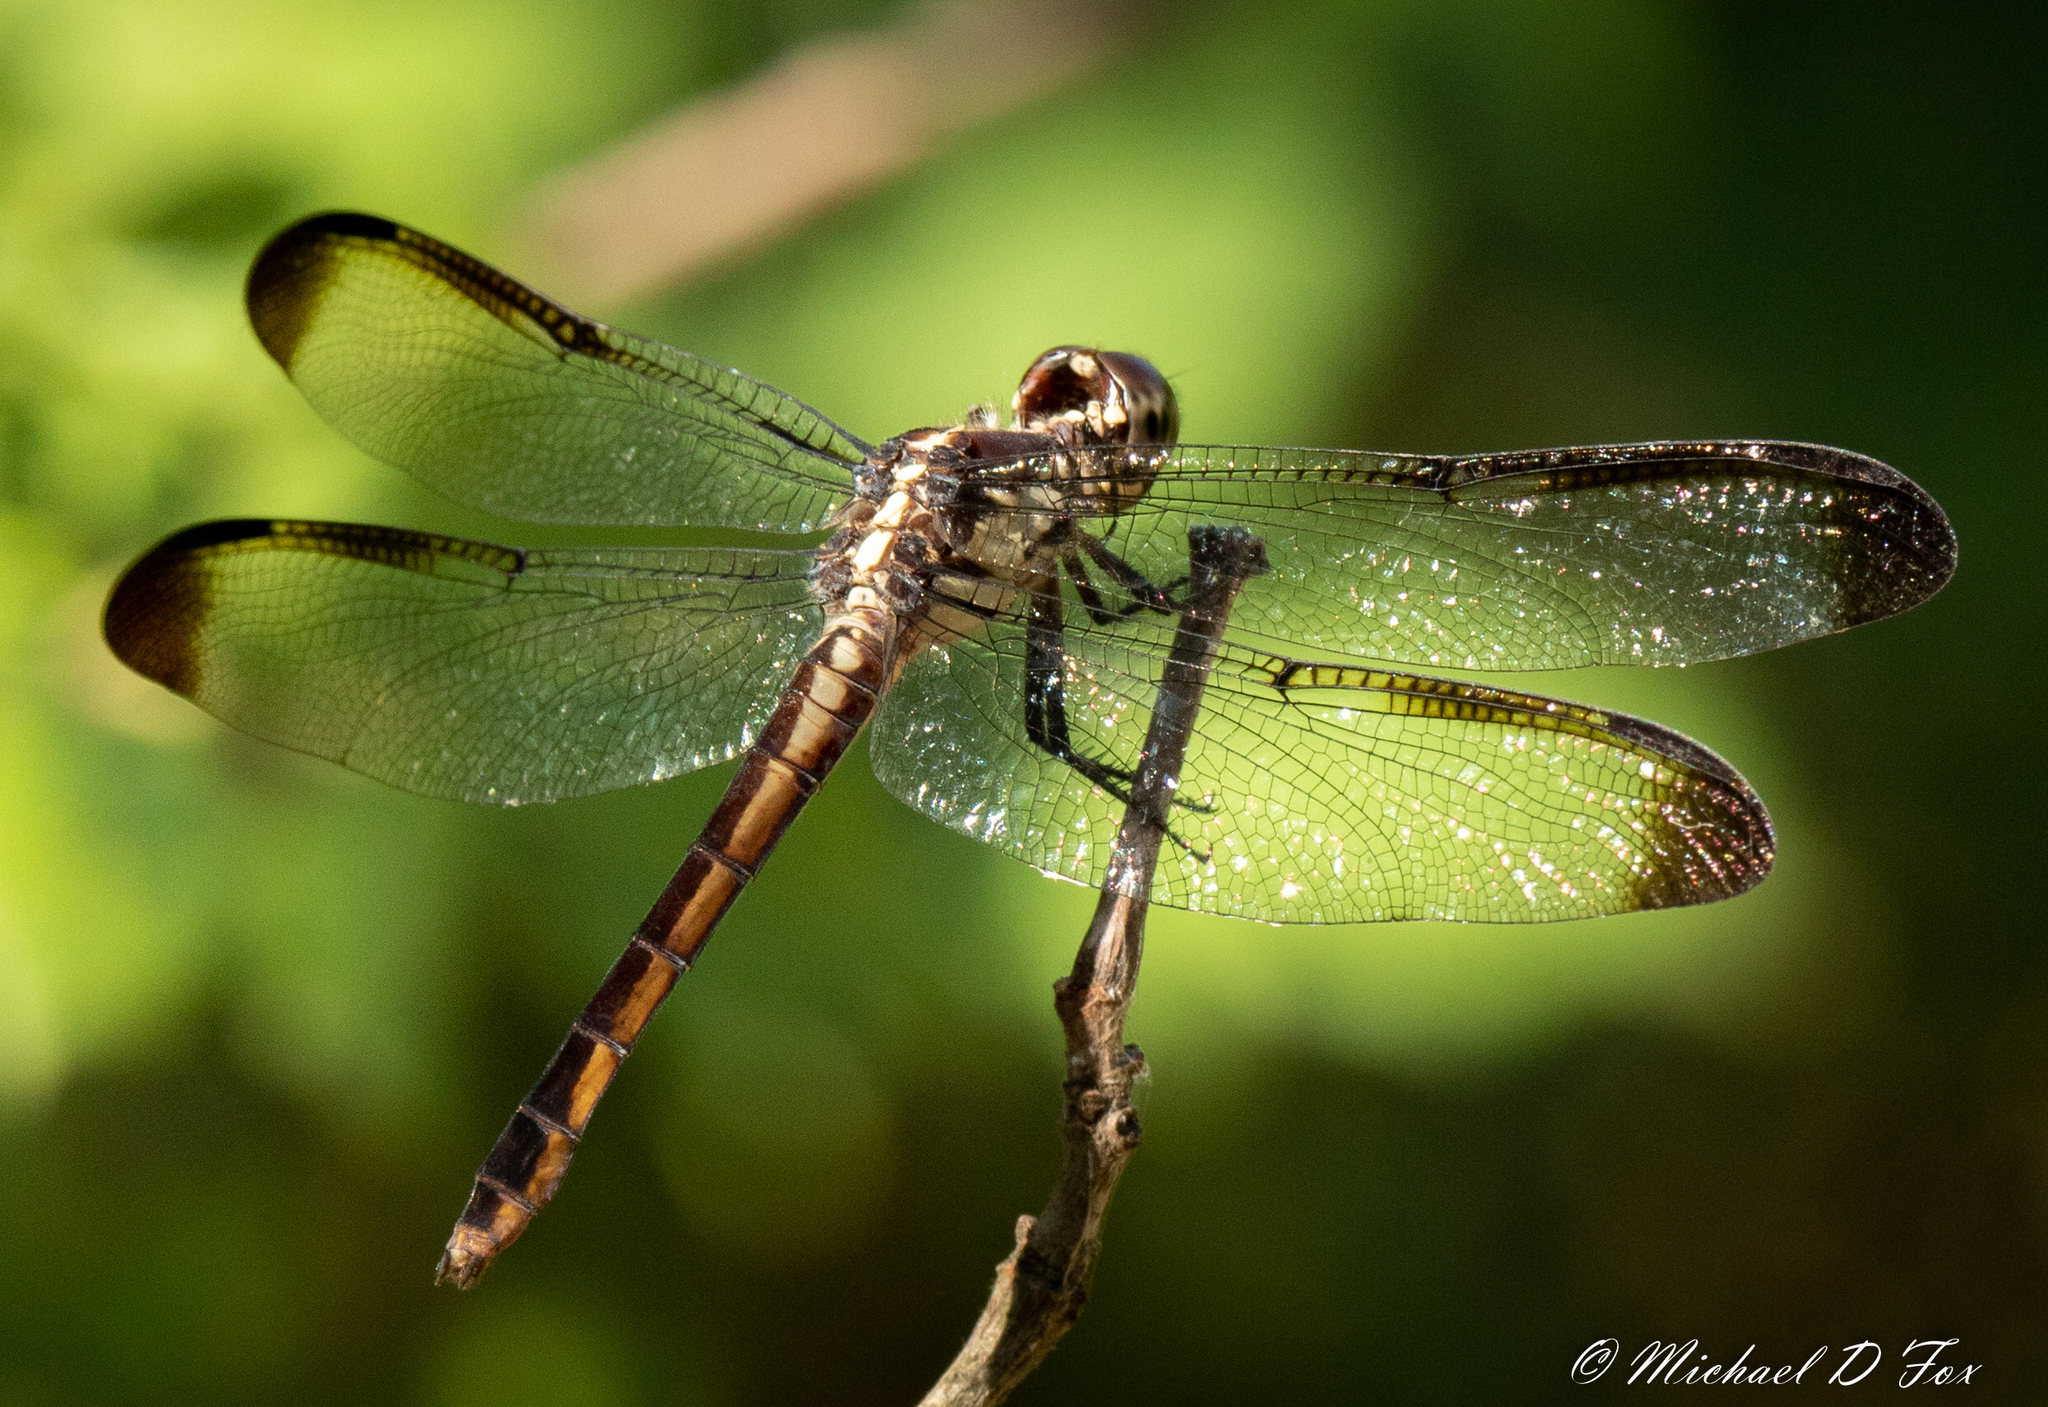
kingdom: Animalia
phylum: Arthropoda
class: Insecta
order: Odonata
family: Libellulidae
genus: Libellula
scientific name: Libellula incesta
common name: Slaty skimmer
